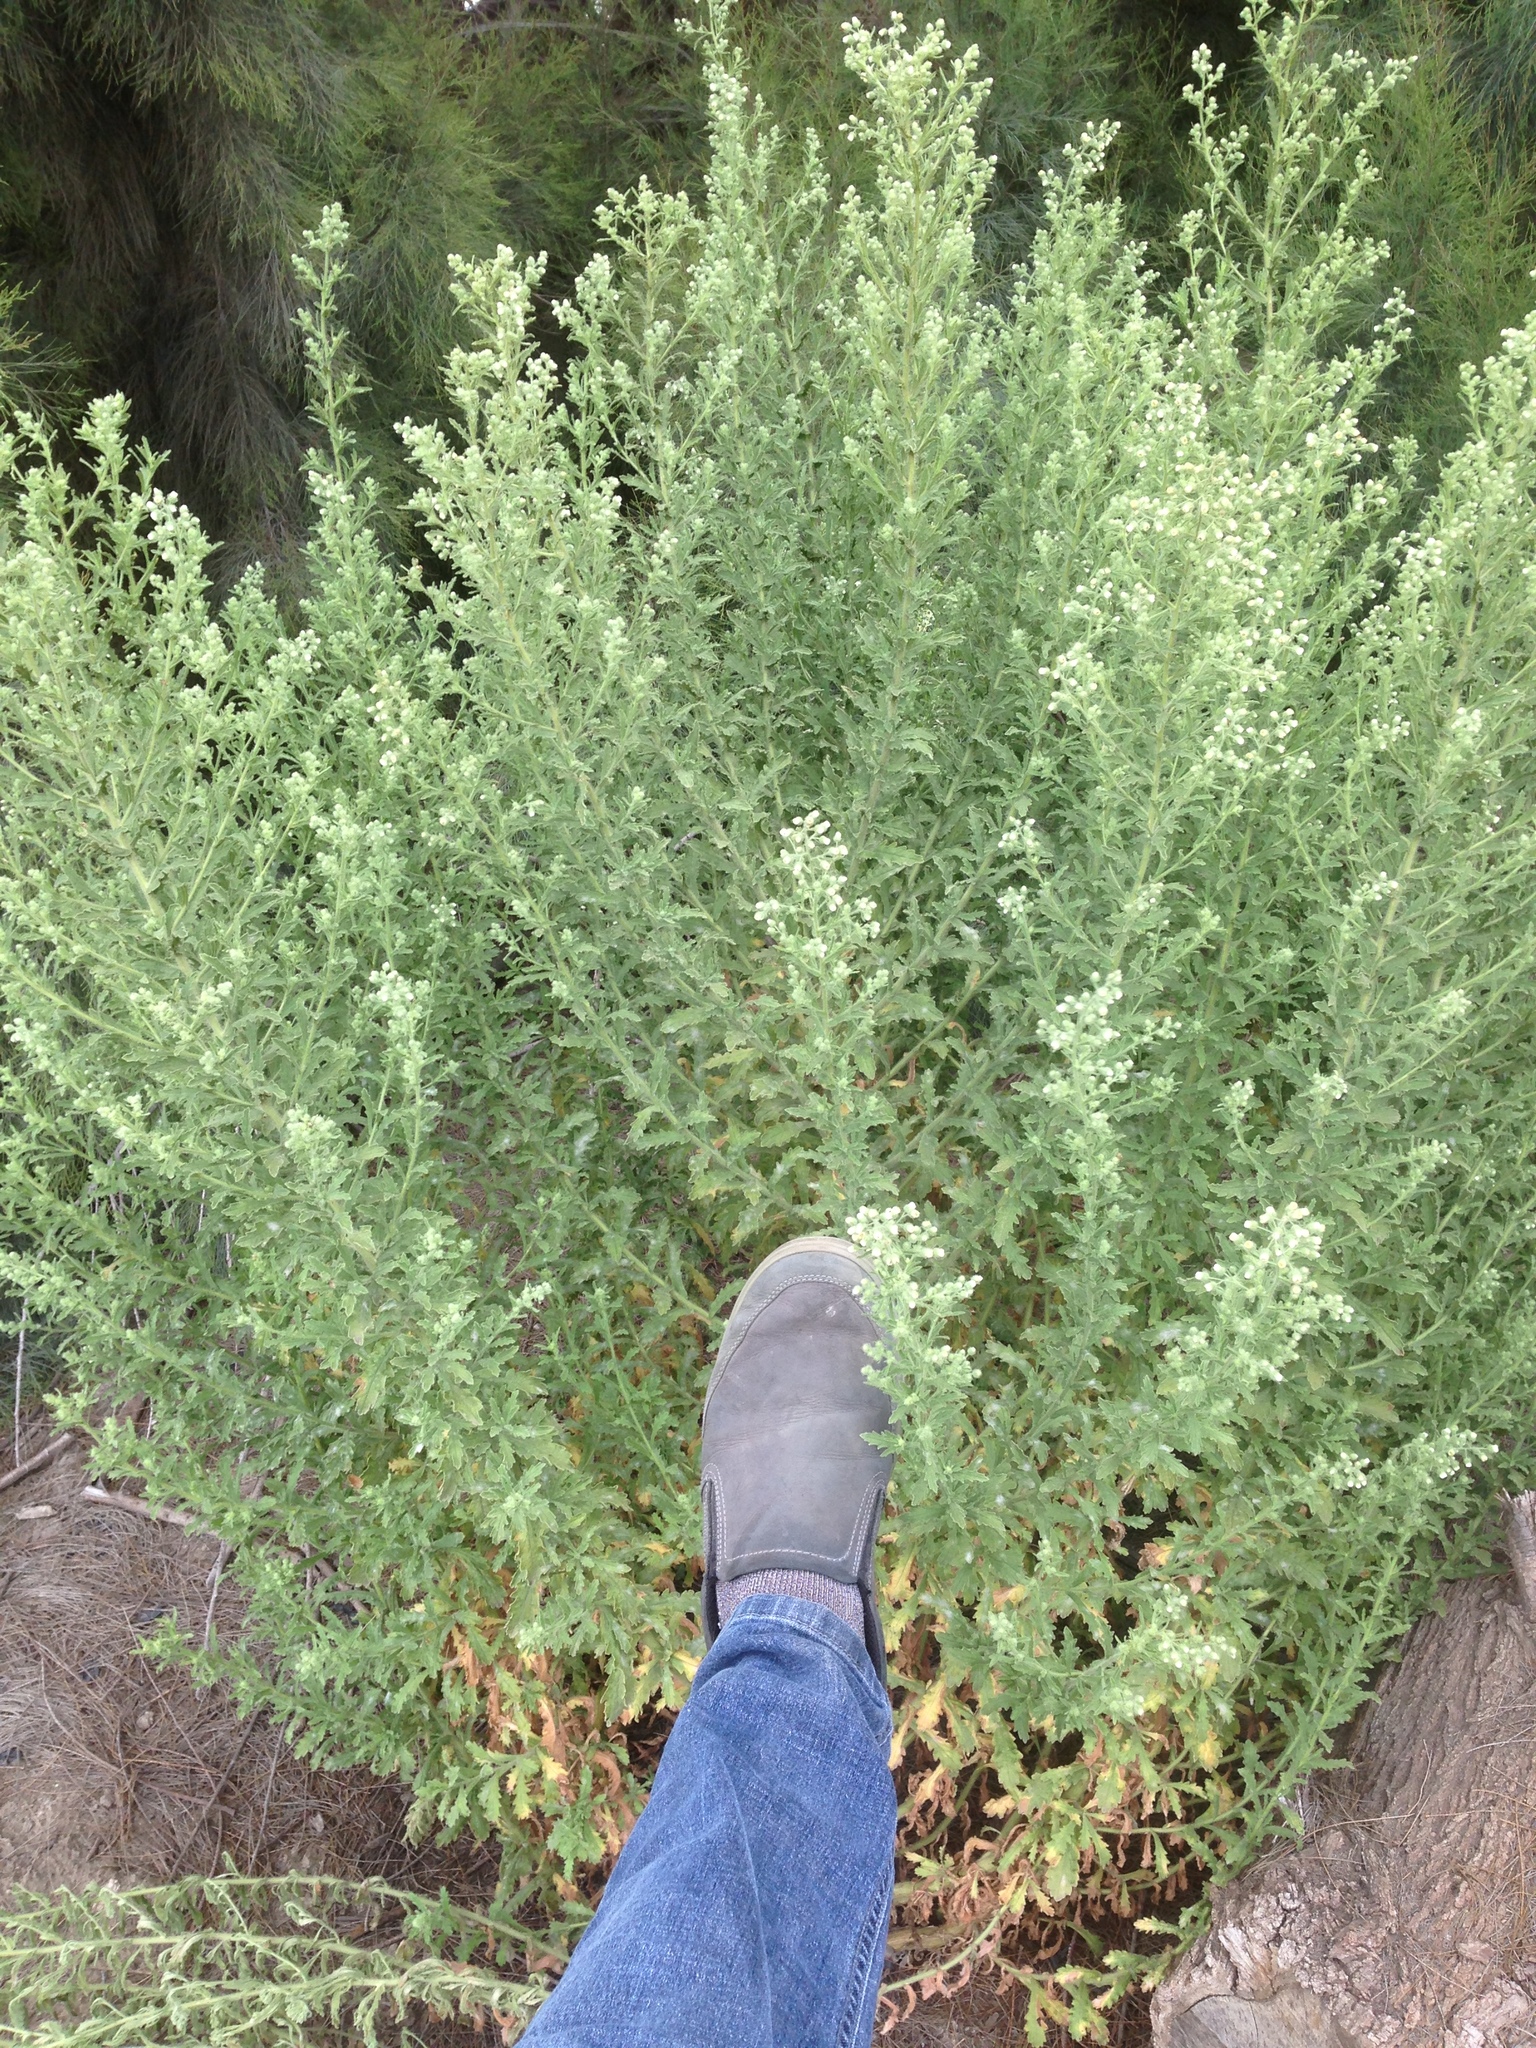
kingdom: Plantae
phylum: Tracheophyta
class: Magnoliopsida
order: Asterales
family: Asteraceae
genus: Laennecia
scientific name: Laennecia coulteri
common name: Coulter's woolwort
